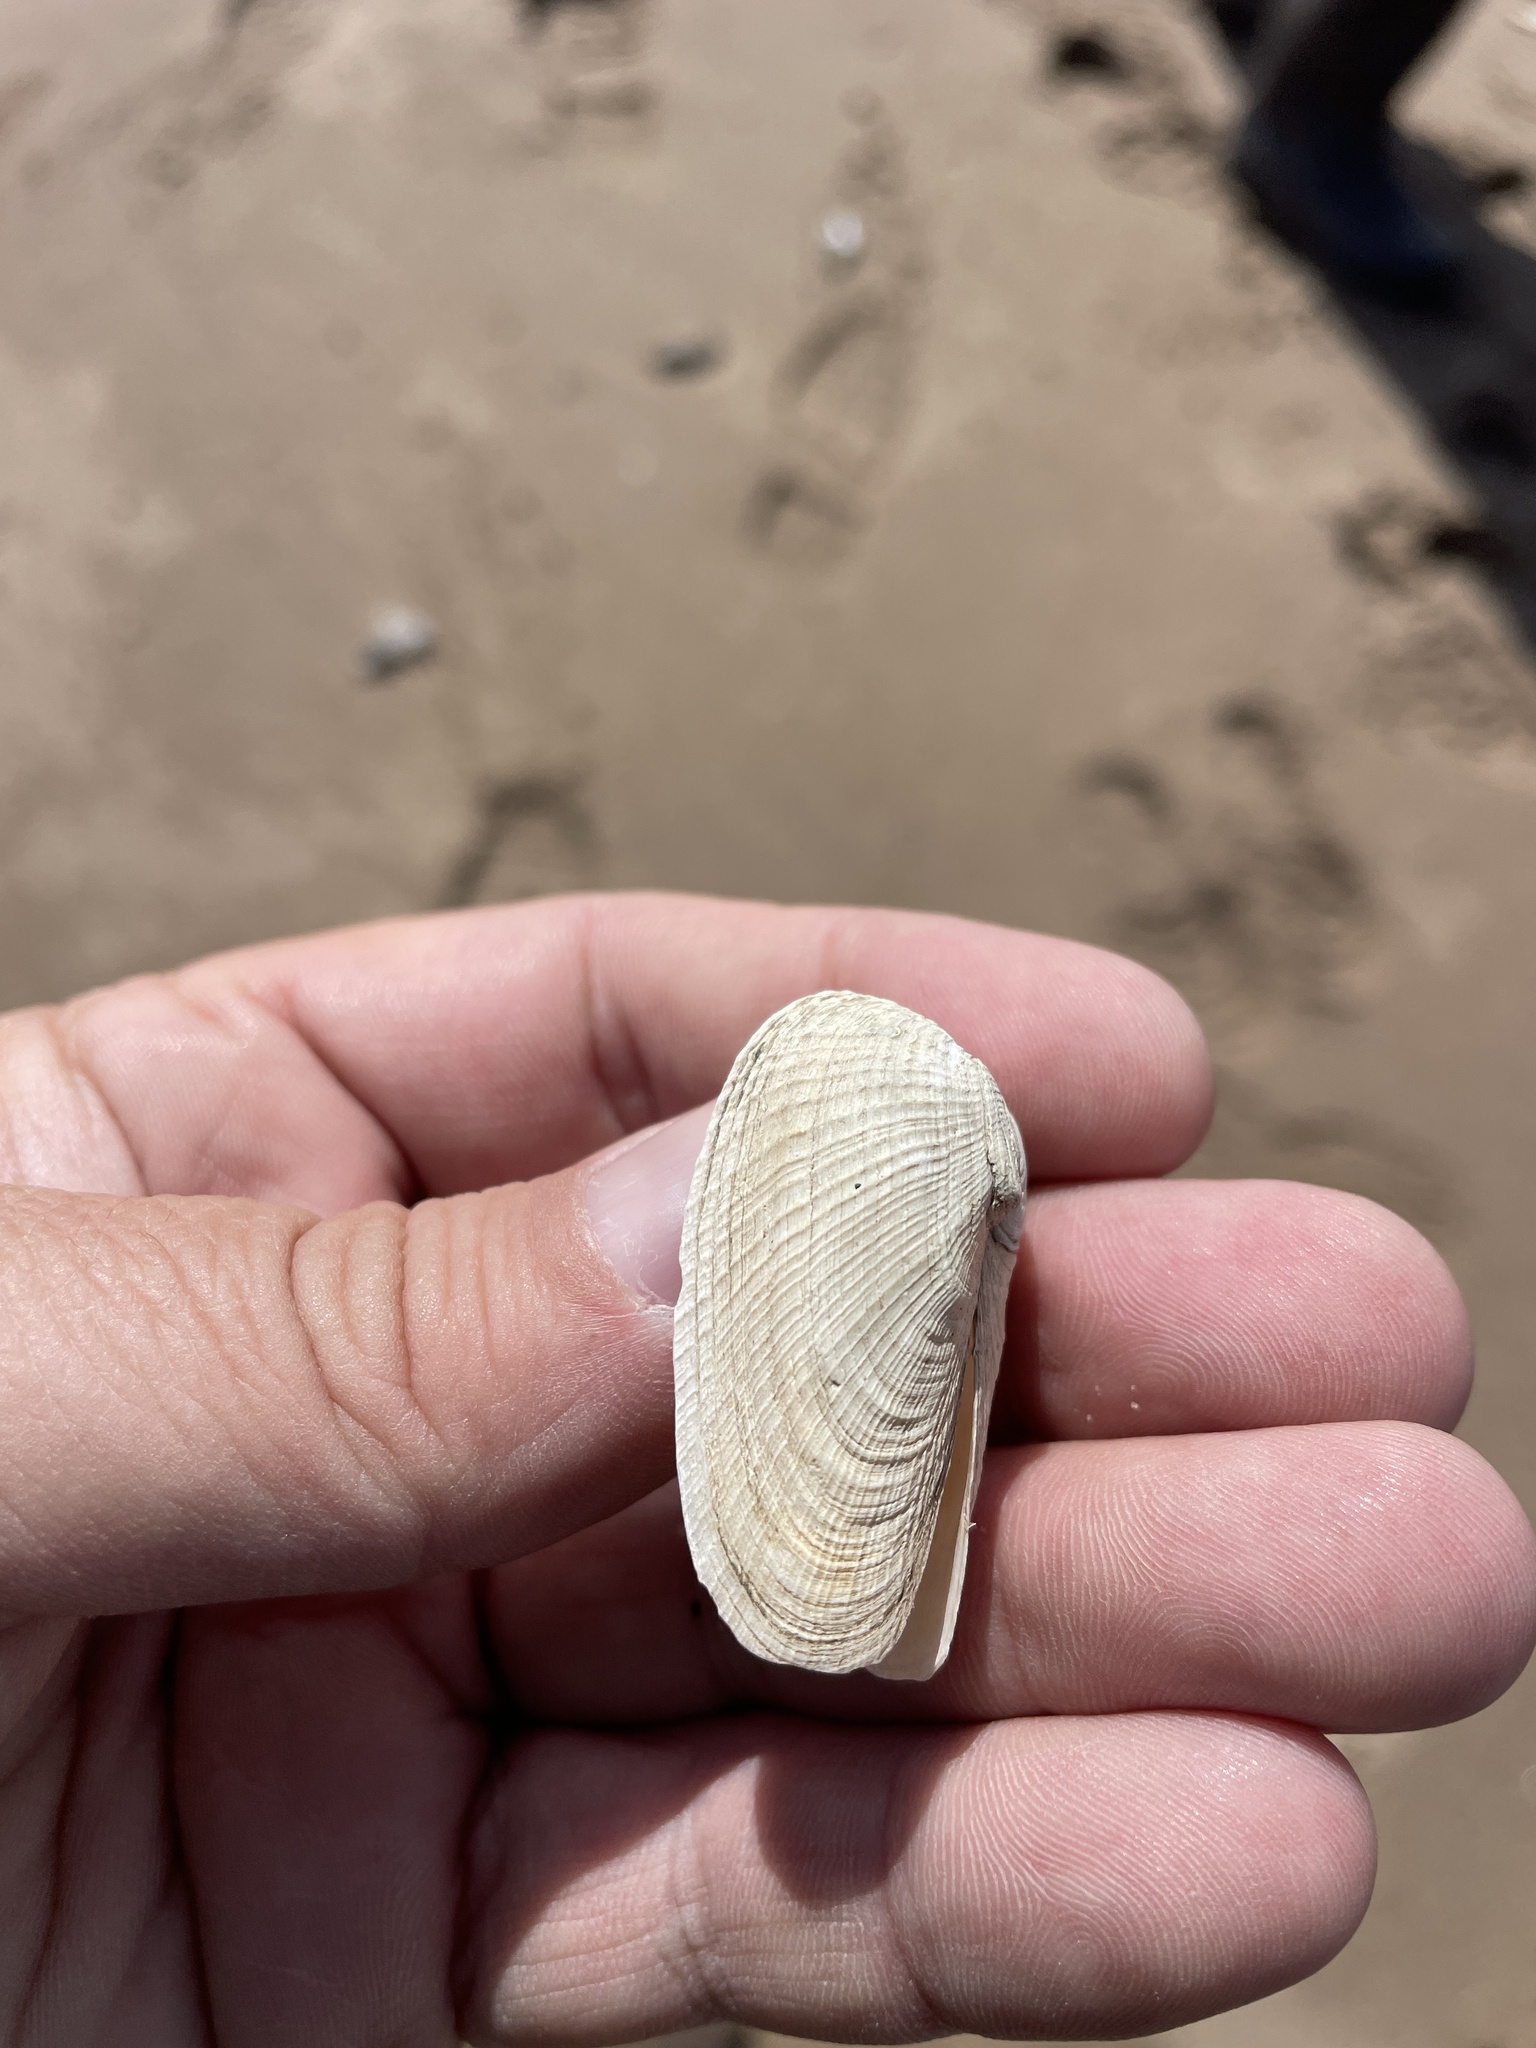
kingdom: Animalia
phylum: Mollusca
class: Bivalvia
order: Venerida
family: Veneridae
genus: Petricolaria
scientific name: Petricolaria pholadiformis
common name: American piddock
